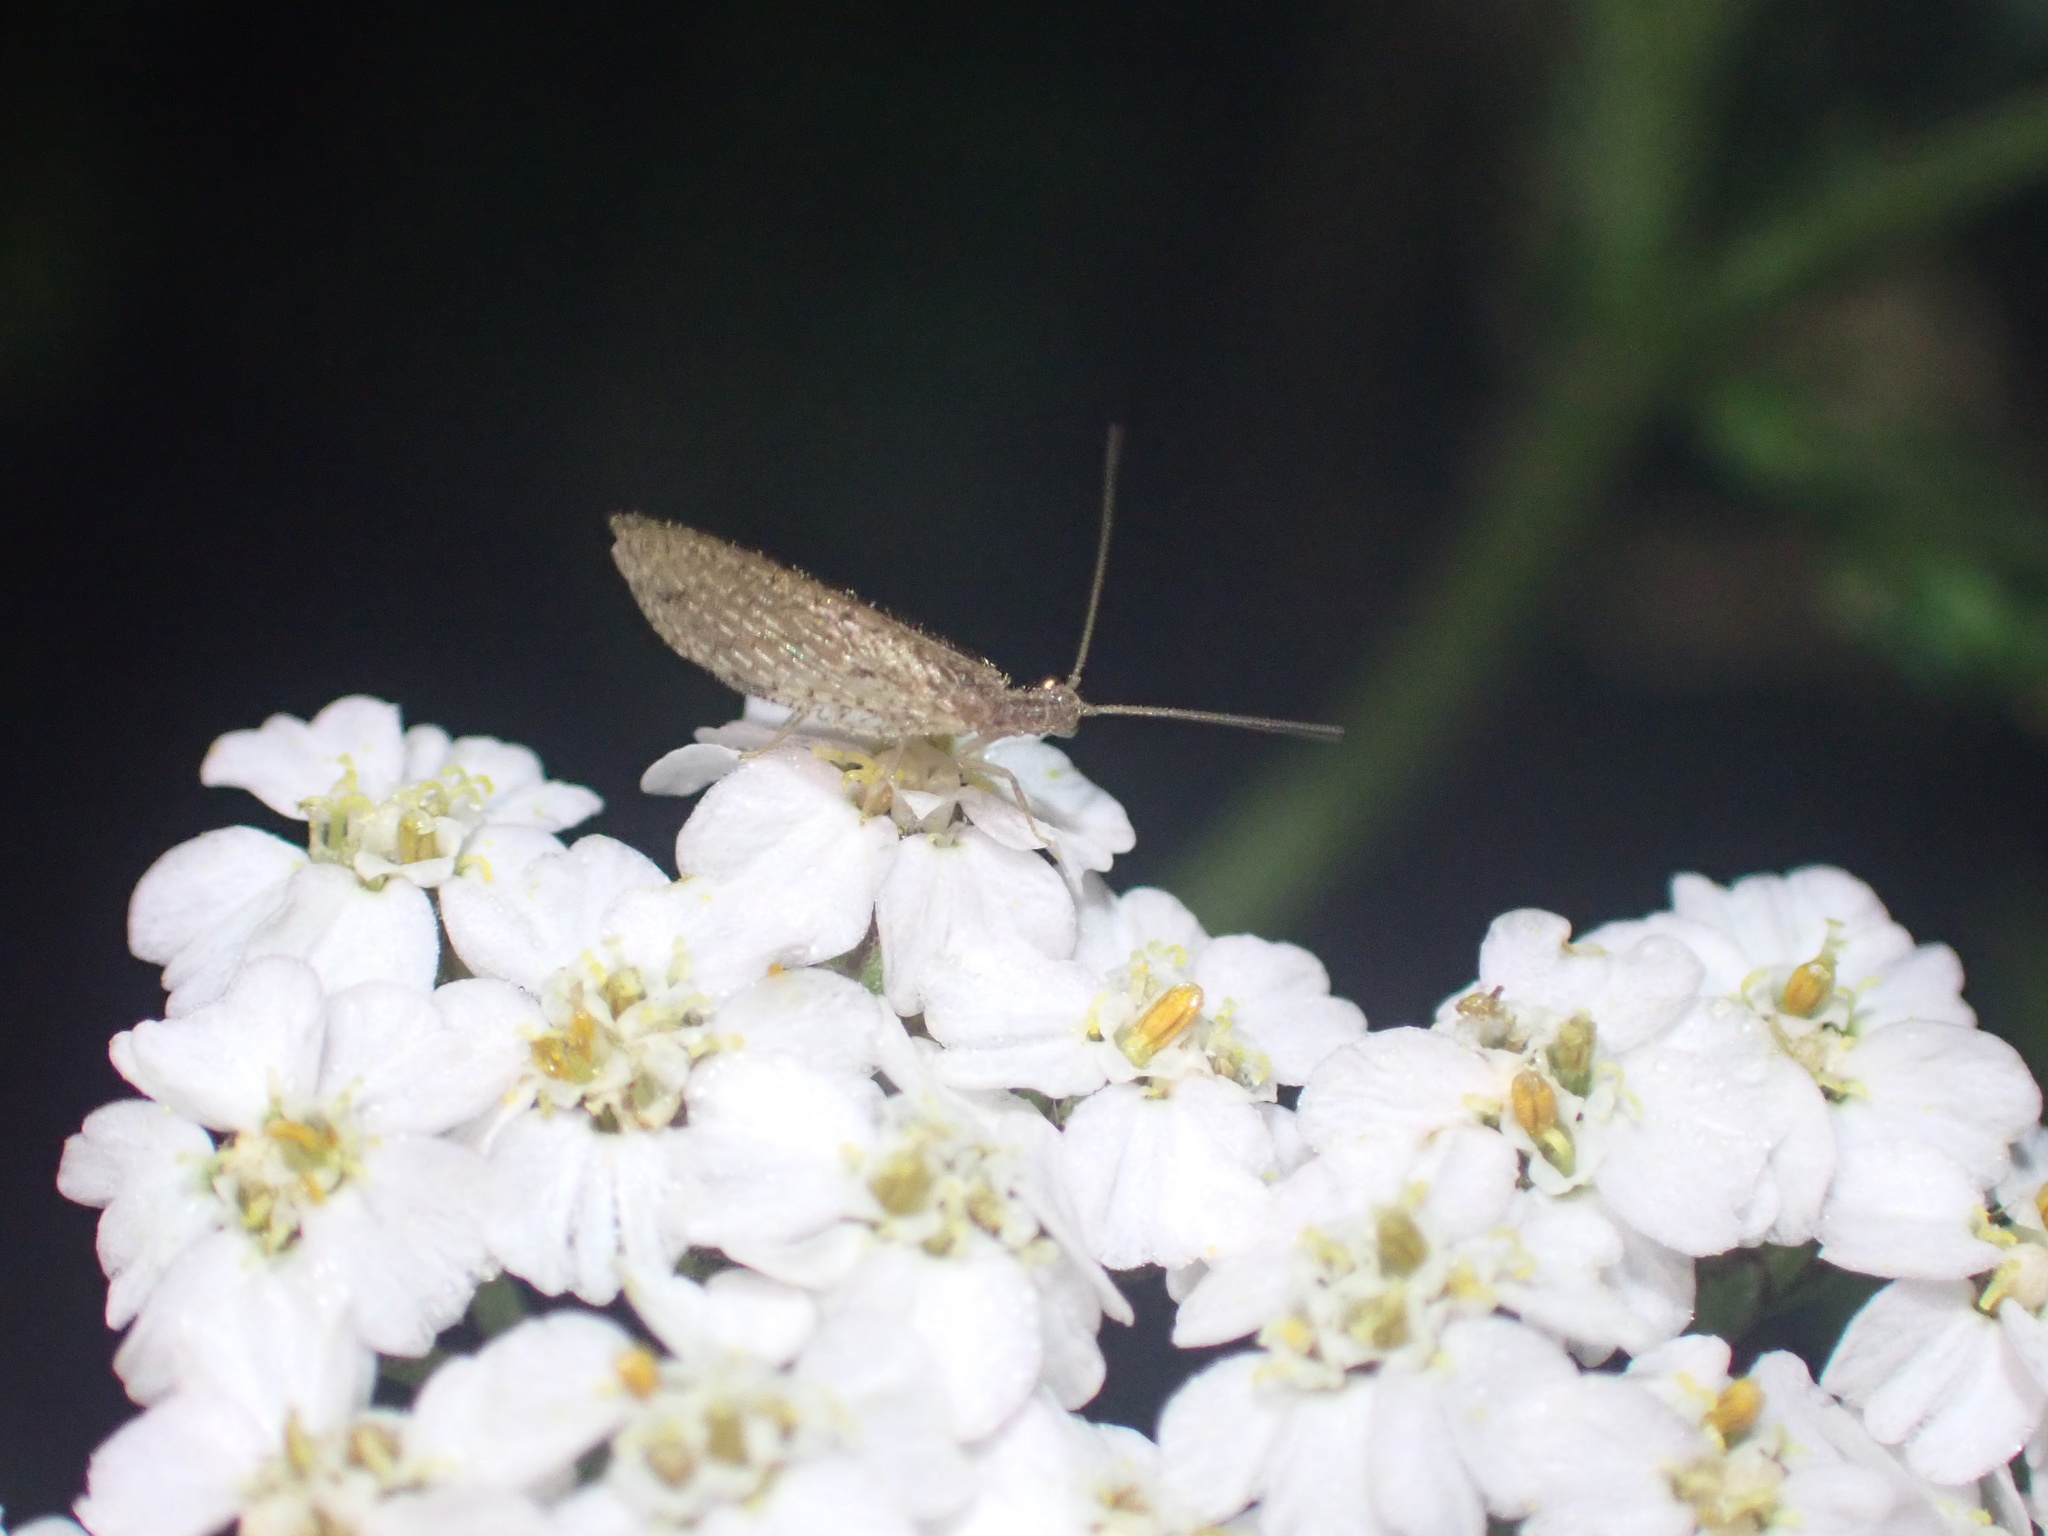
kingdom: Animalia
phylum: Arthropoda
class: Insecta
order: Neuroptera
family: Hemerobiidae
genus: Micromus
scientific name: Micromus tasmaniae
